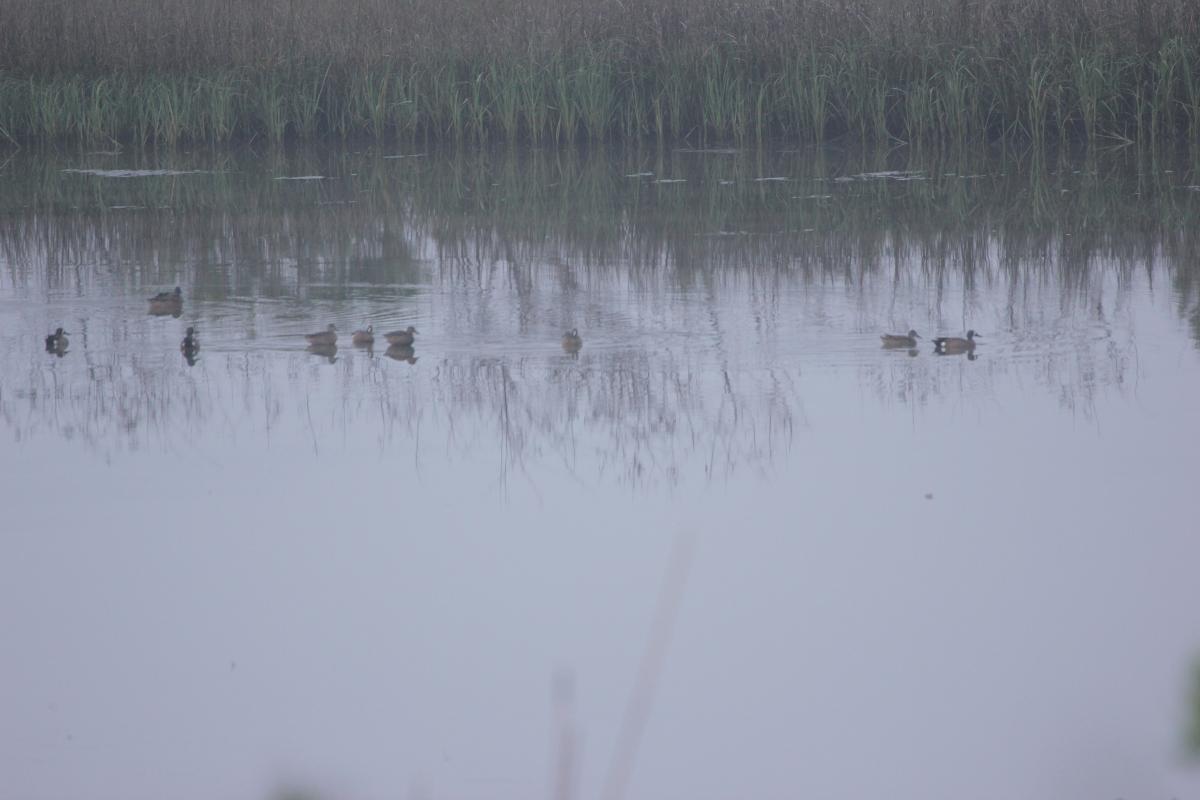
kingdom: Animalia
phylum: Chordata
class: Aves
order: Anseriformes
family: Anatidae
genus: Spatula
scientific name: Spatula discors
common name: Blue-winged teal
